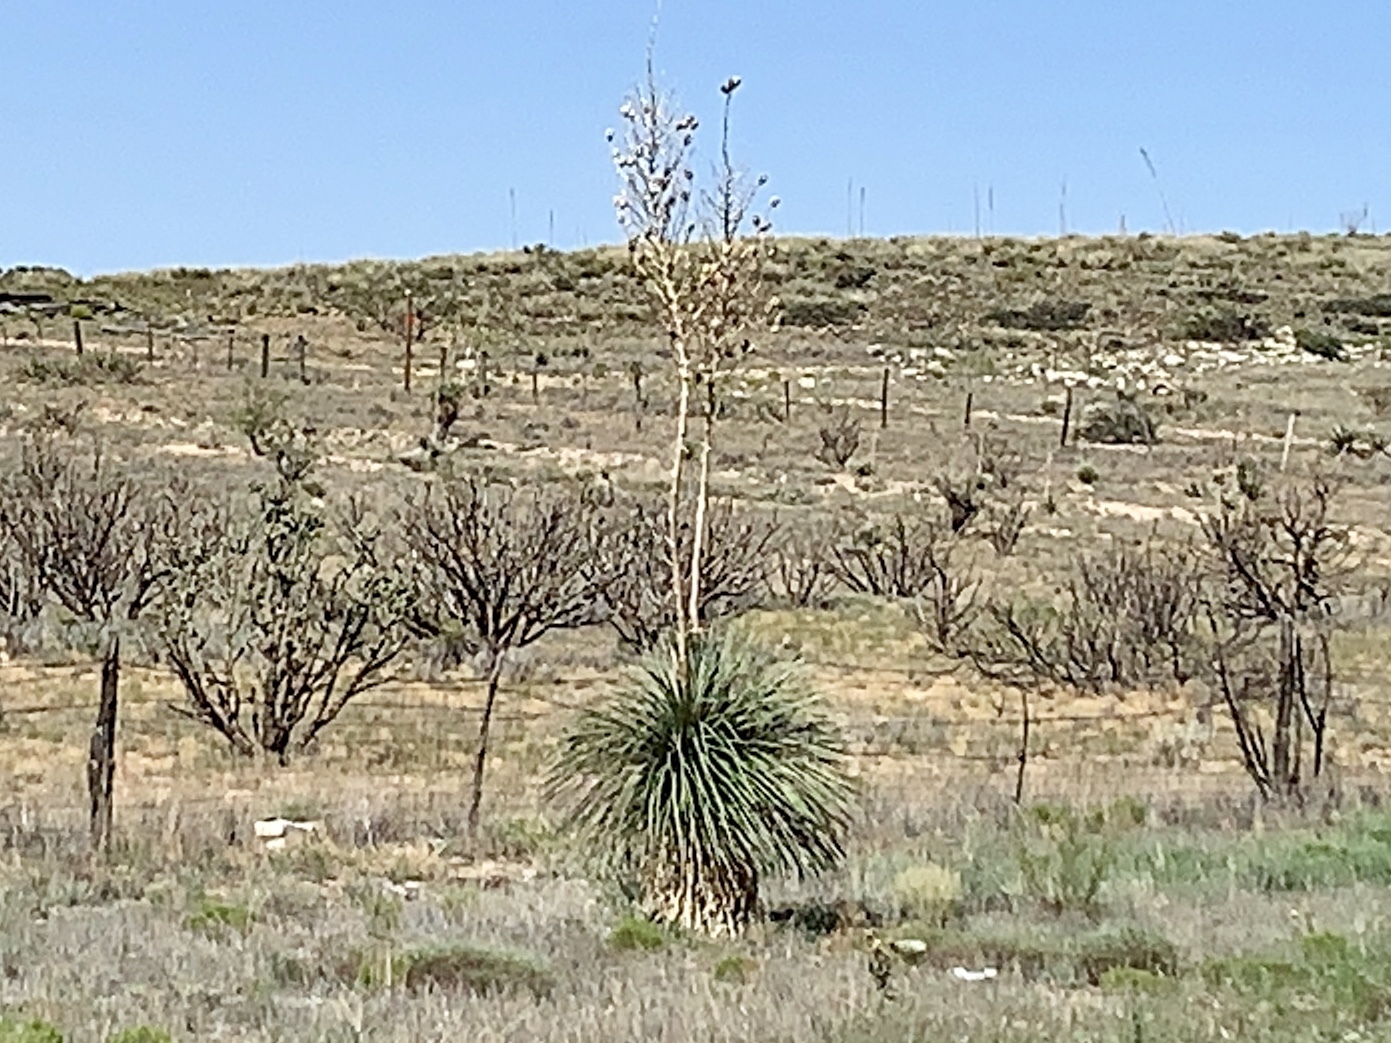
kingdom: Plantae
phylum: Tracheophyta
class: Liliopsida
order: Asparagales
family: Asparagaceae
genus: Yucca
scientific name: Yucca elata
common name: Palmella
